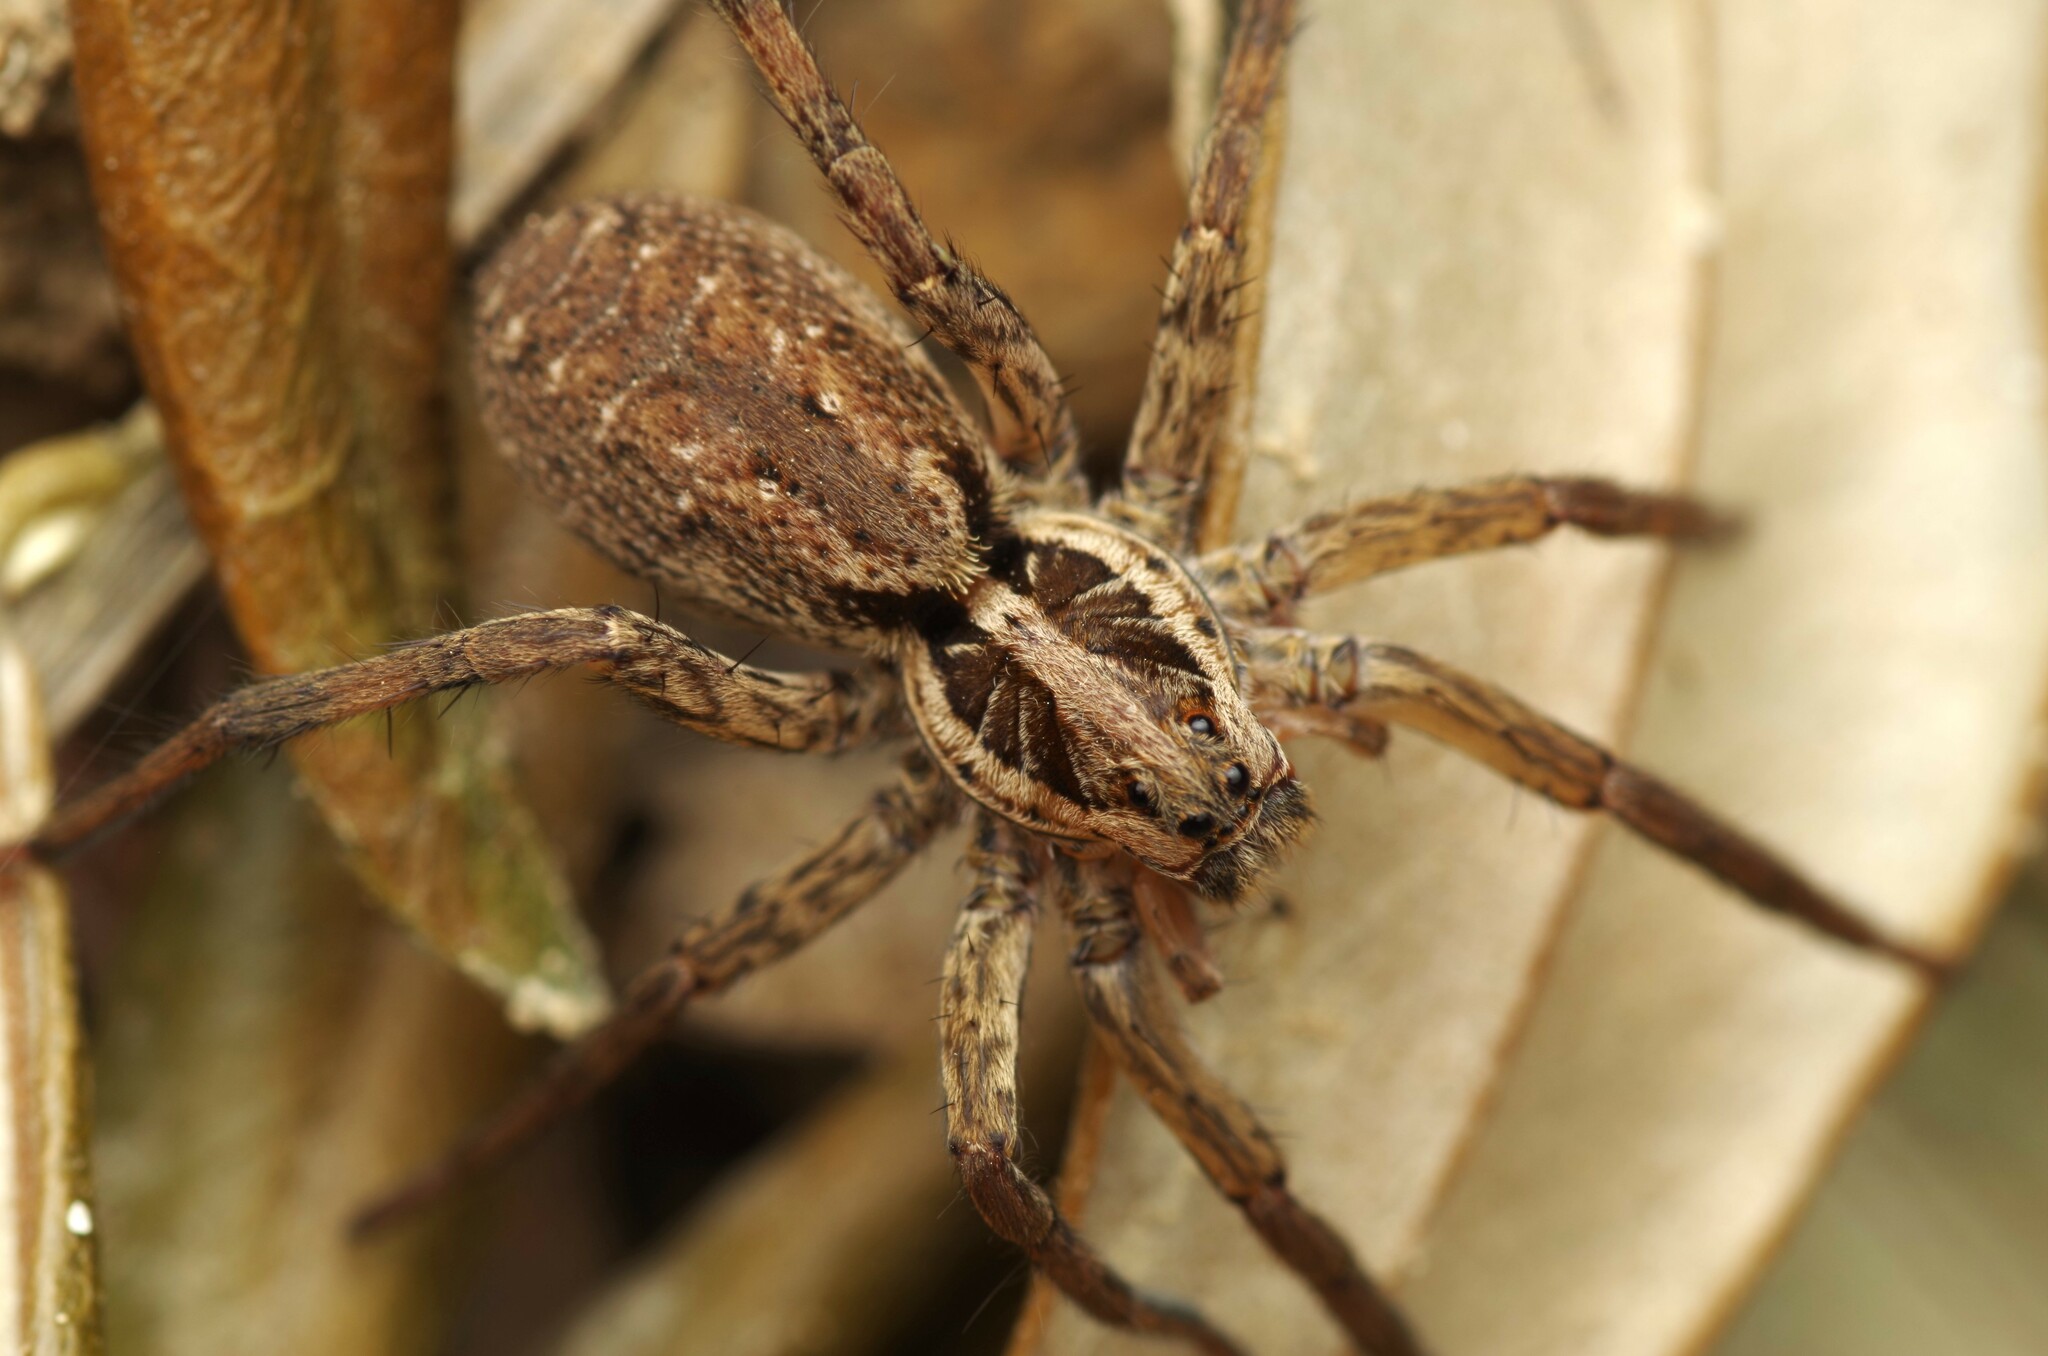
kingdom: Animalia
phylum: Arthropoda
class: Arachnida
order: Araneae
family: Lycosidae
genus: Hogna
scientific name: Hogna radiata
